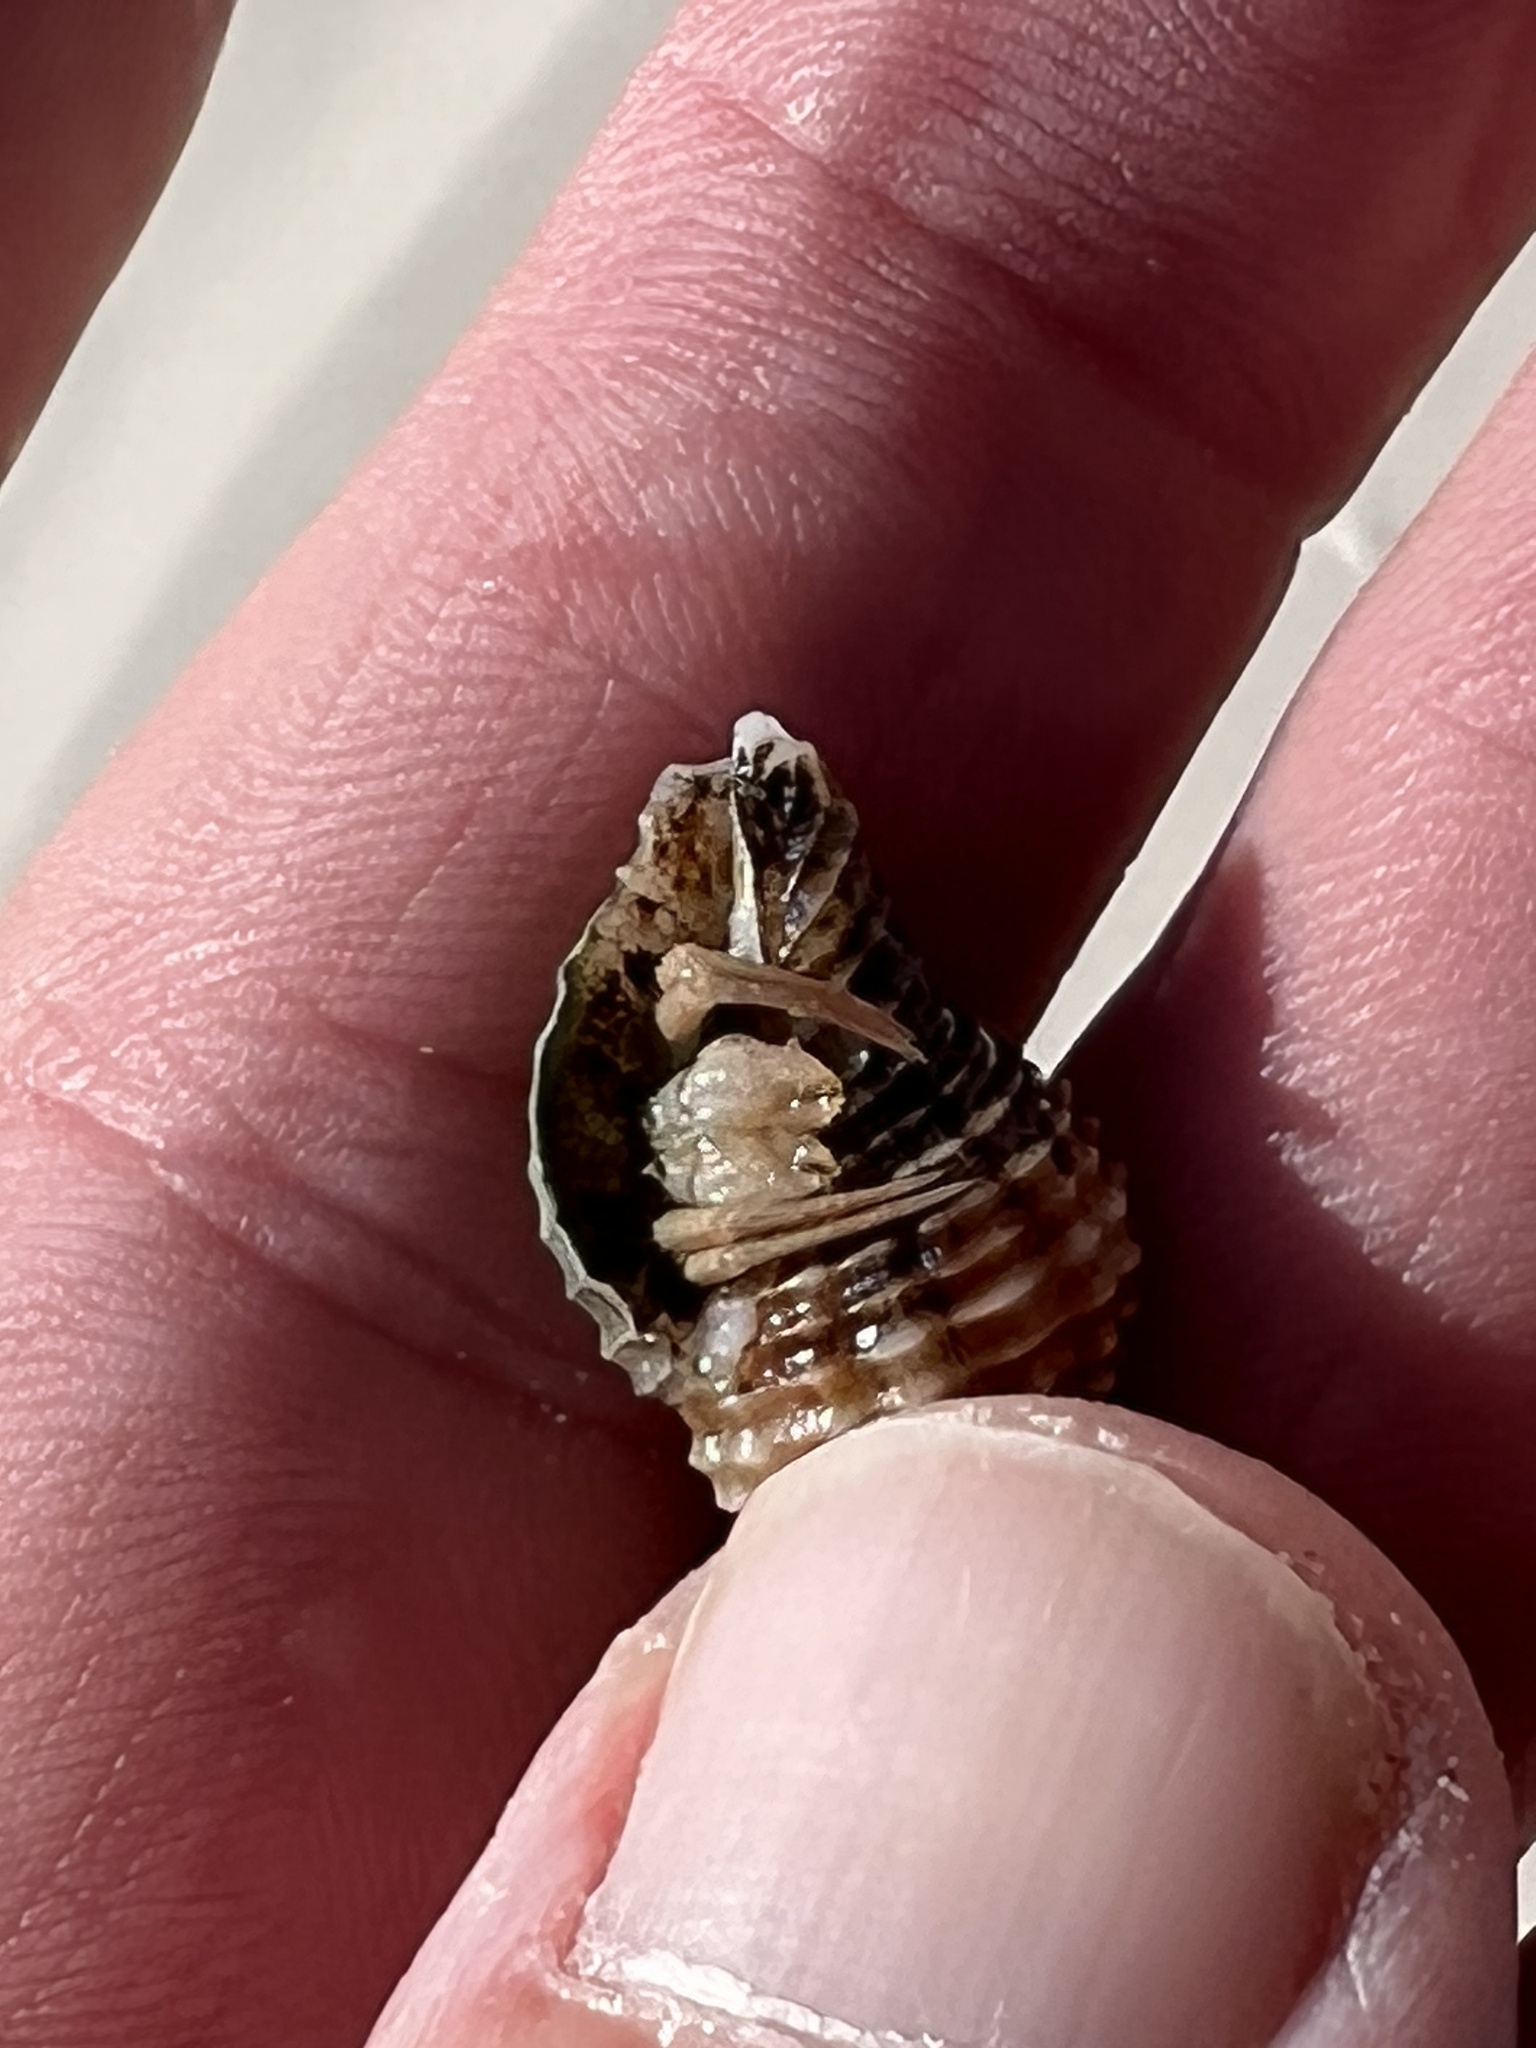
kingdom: Animalia
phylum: Mollusca
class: Gastropoda
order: Neogastropoda
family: Pisaniidae
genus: Solenosteira
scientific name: Solenosteira cancellaria
